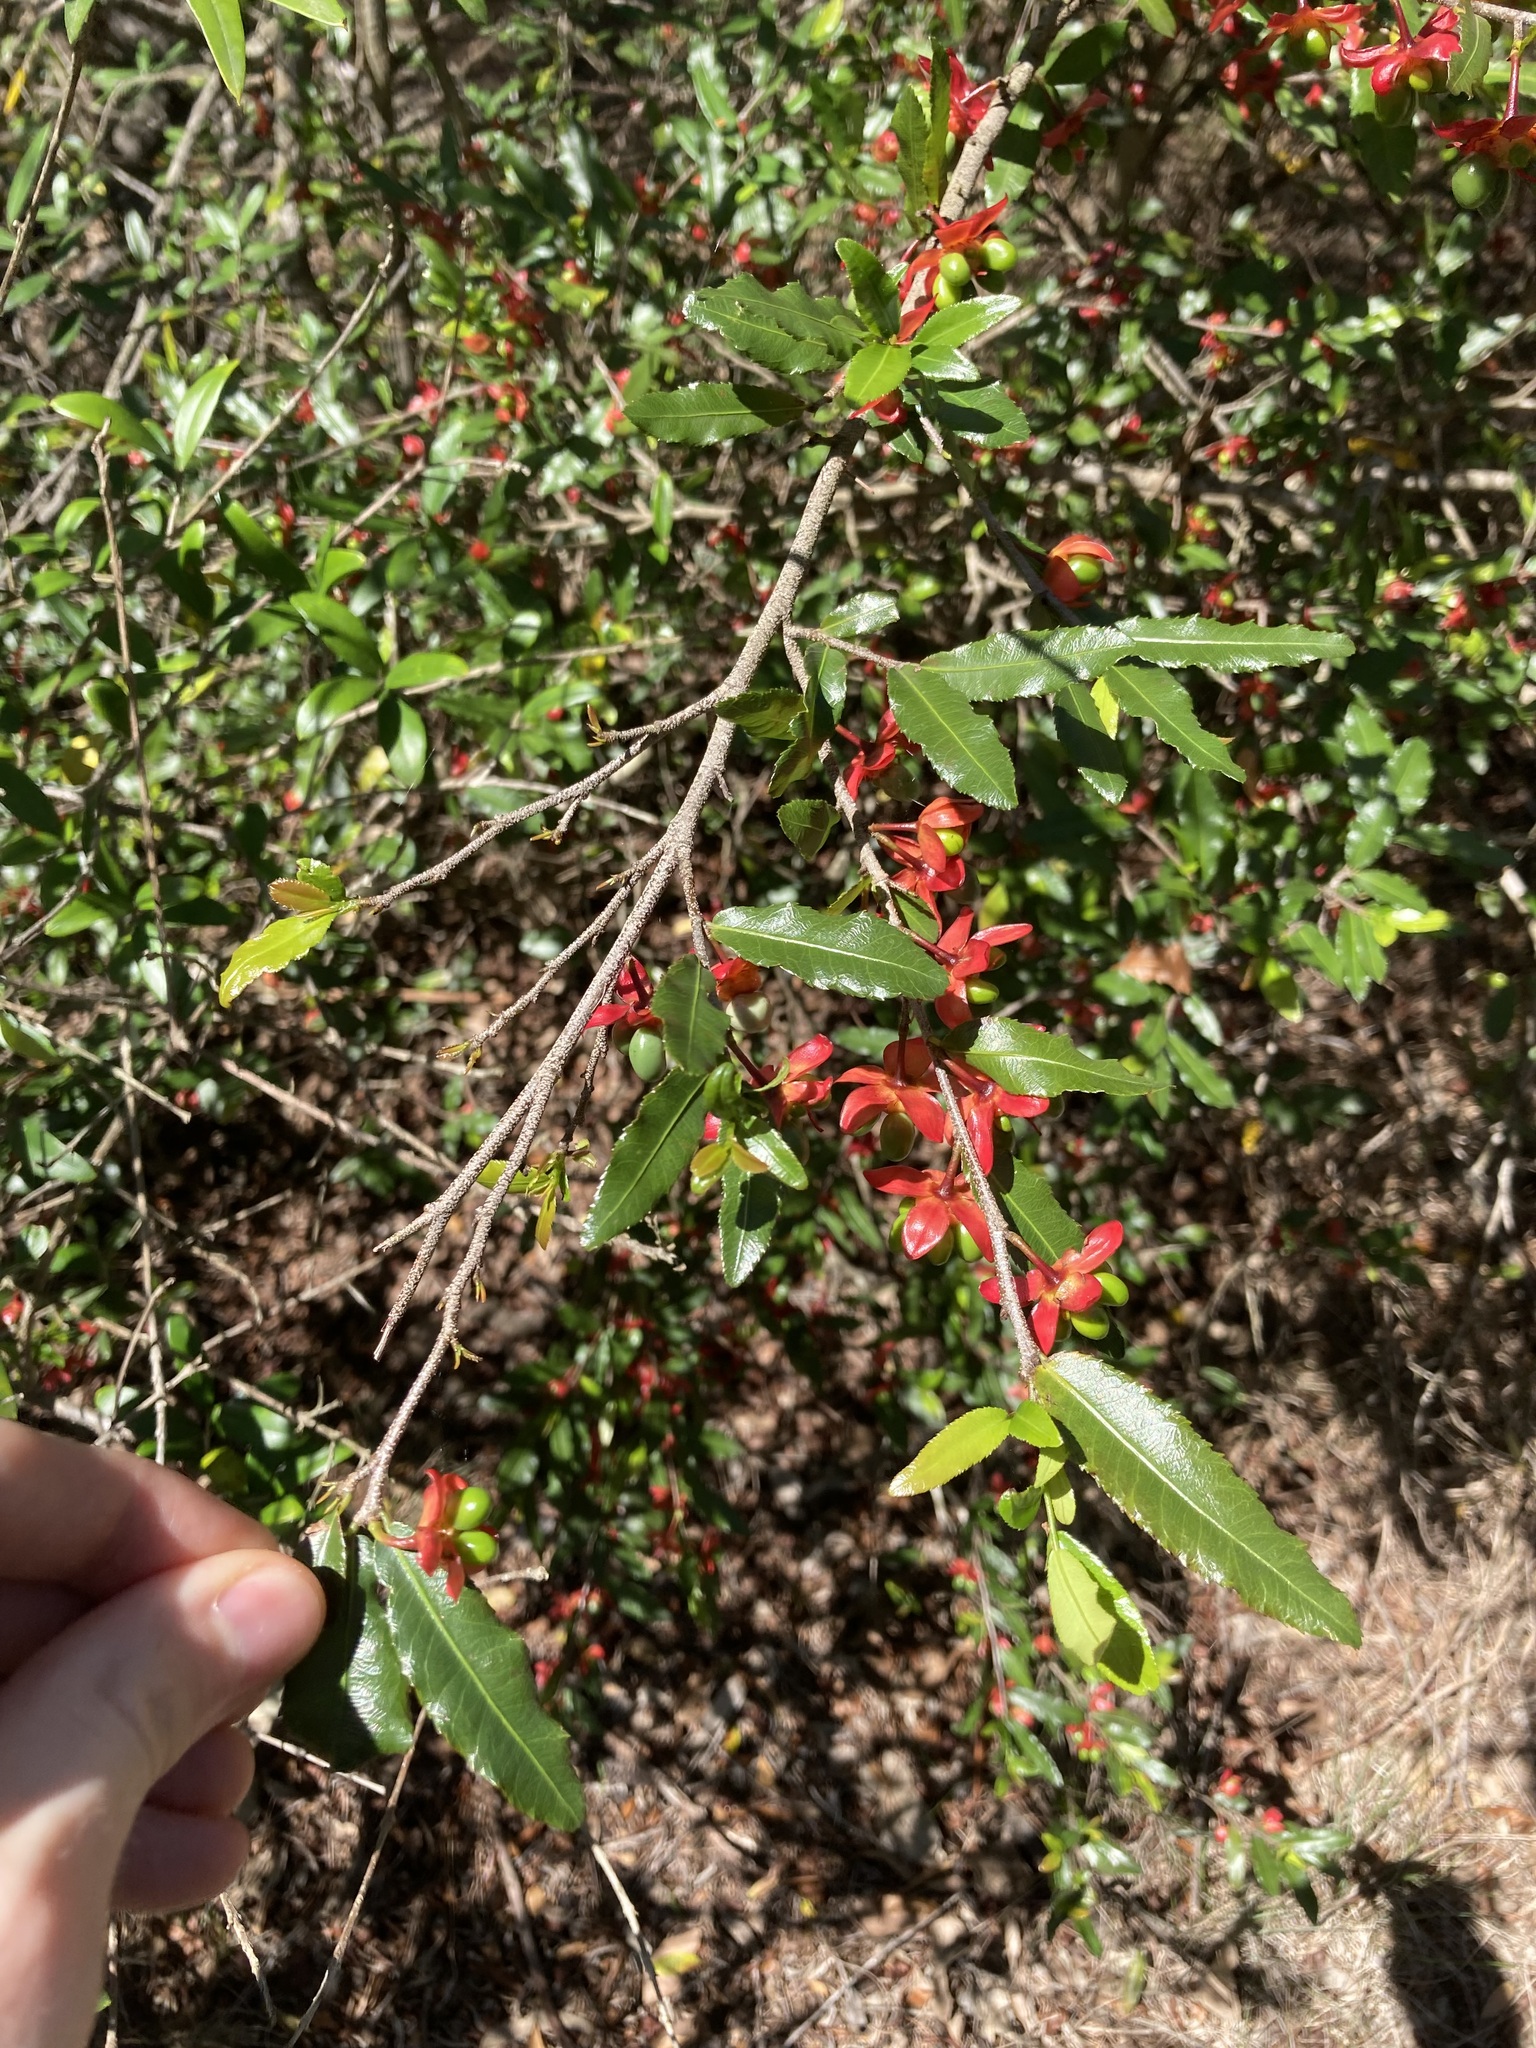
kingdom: Plantae
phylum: Tracheophyta
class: Magnoliopsida
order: Malpighiales
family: Ochnaceae
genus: Ochna
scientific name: Ochna serrulata
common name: Mickey mouse plant
